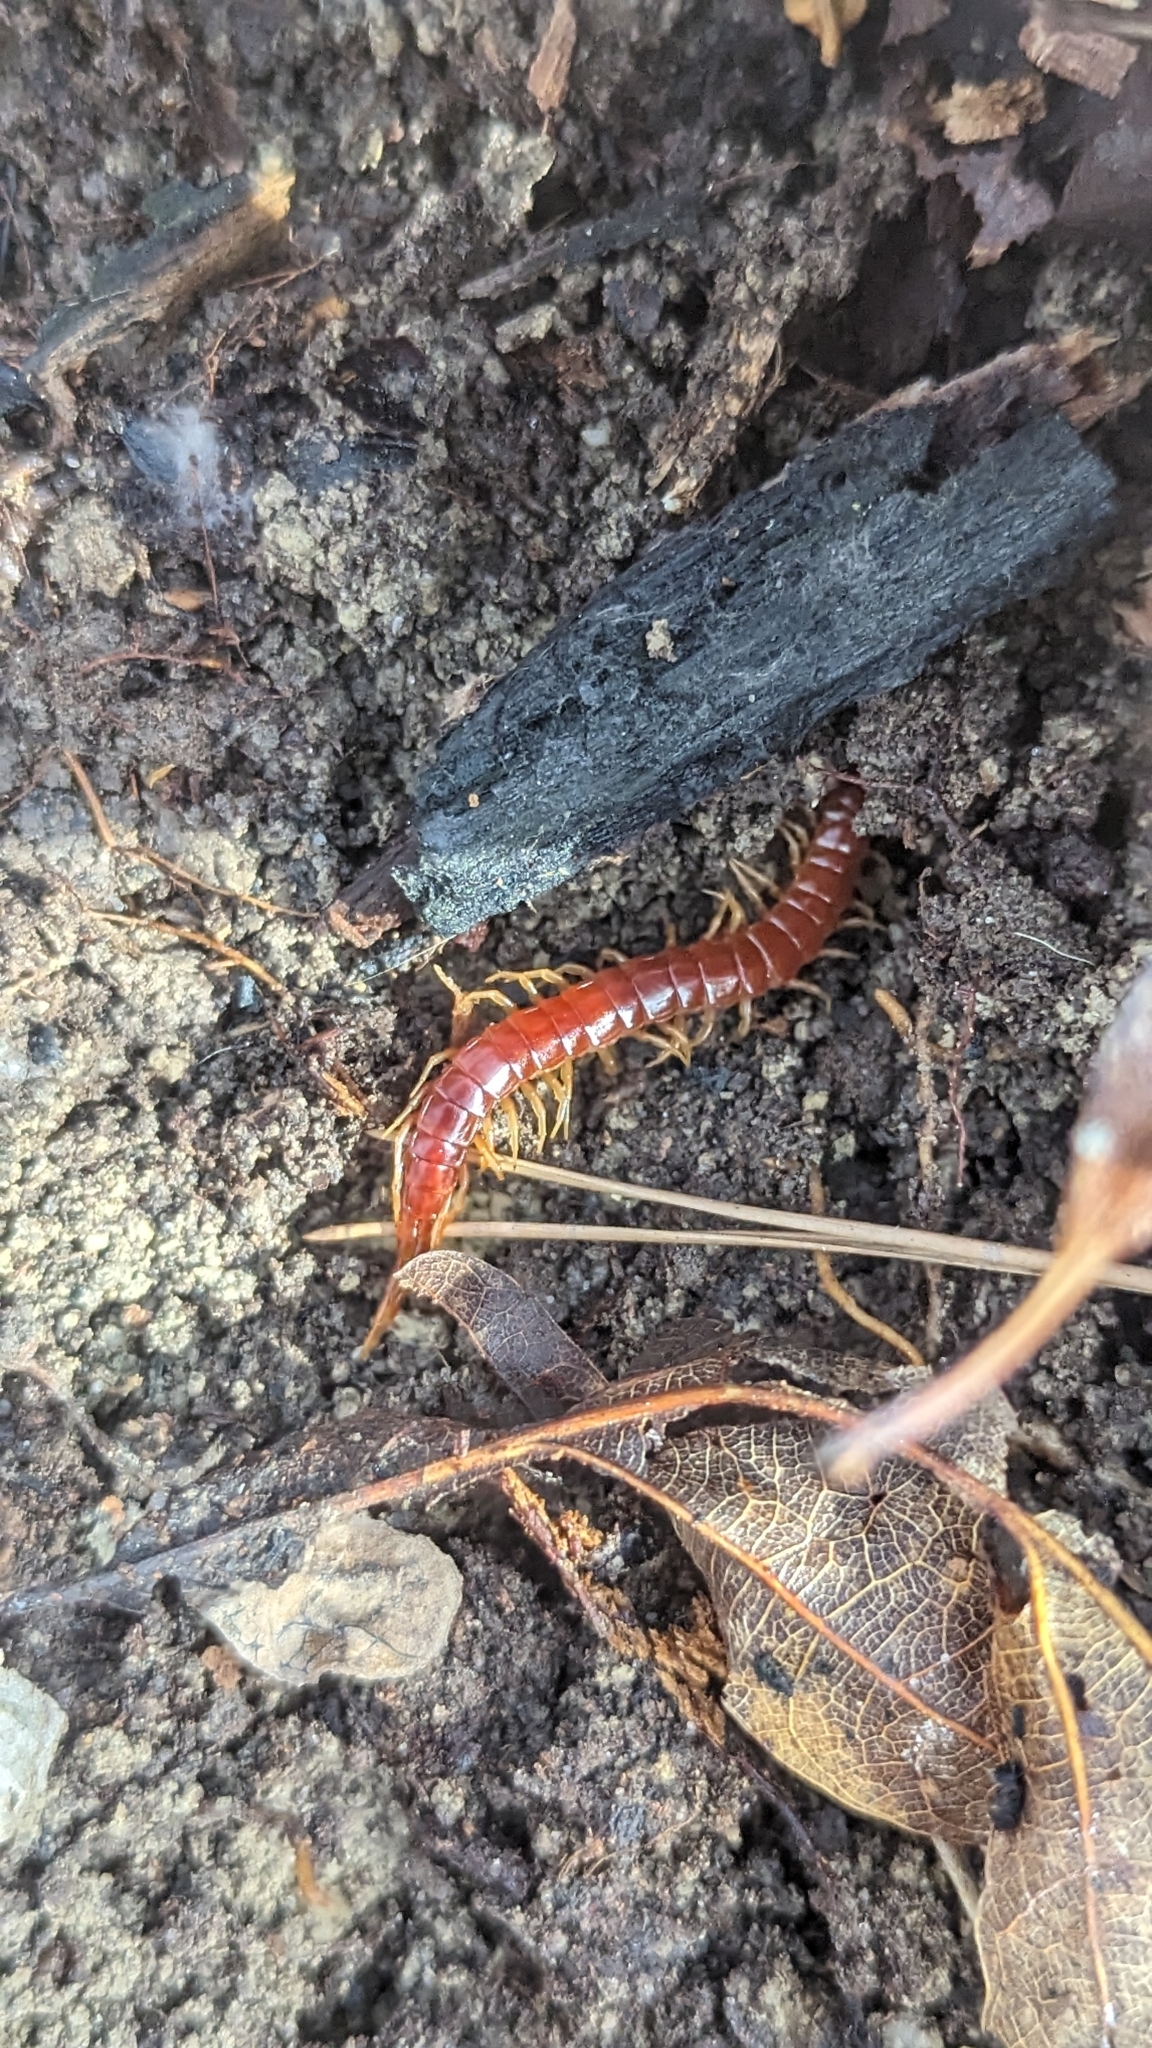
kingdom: Animalia
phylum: Arthropoda
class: Chilopoda
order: Scolopendromorpha
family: Scolopocryptopidae
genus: Scolopocryptops
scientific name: Scolopocryptops sexspinosus
